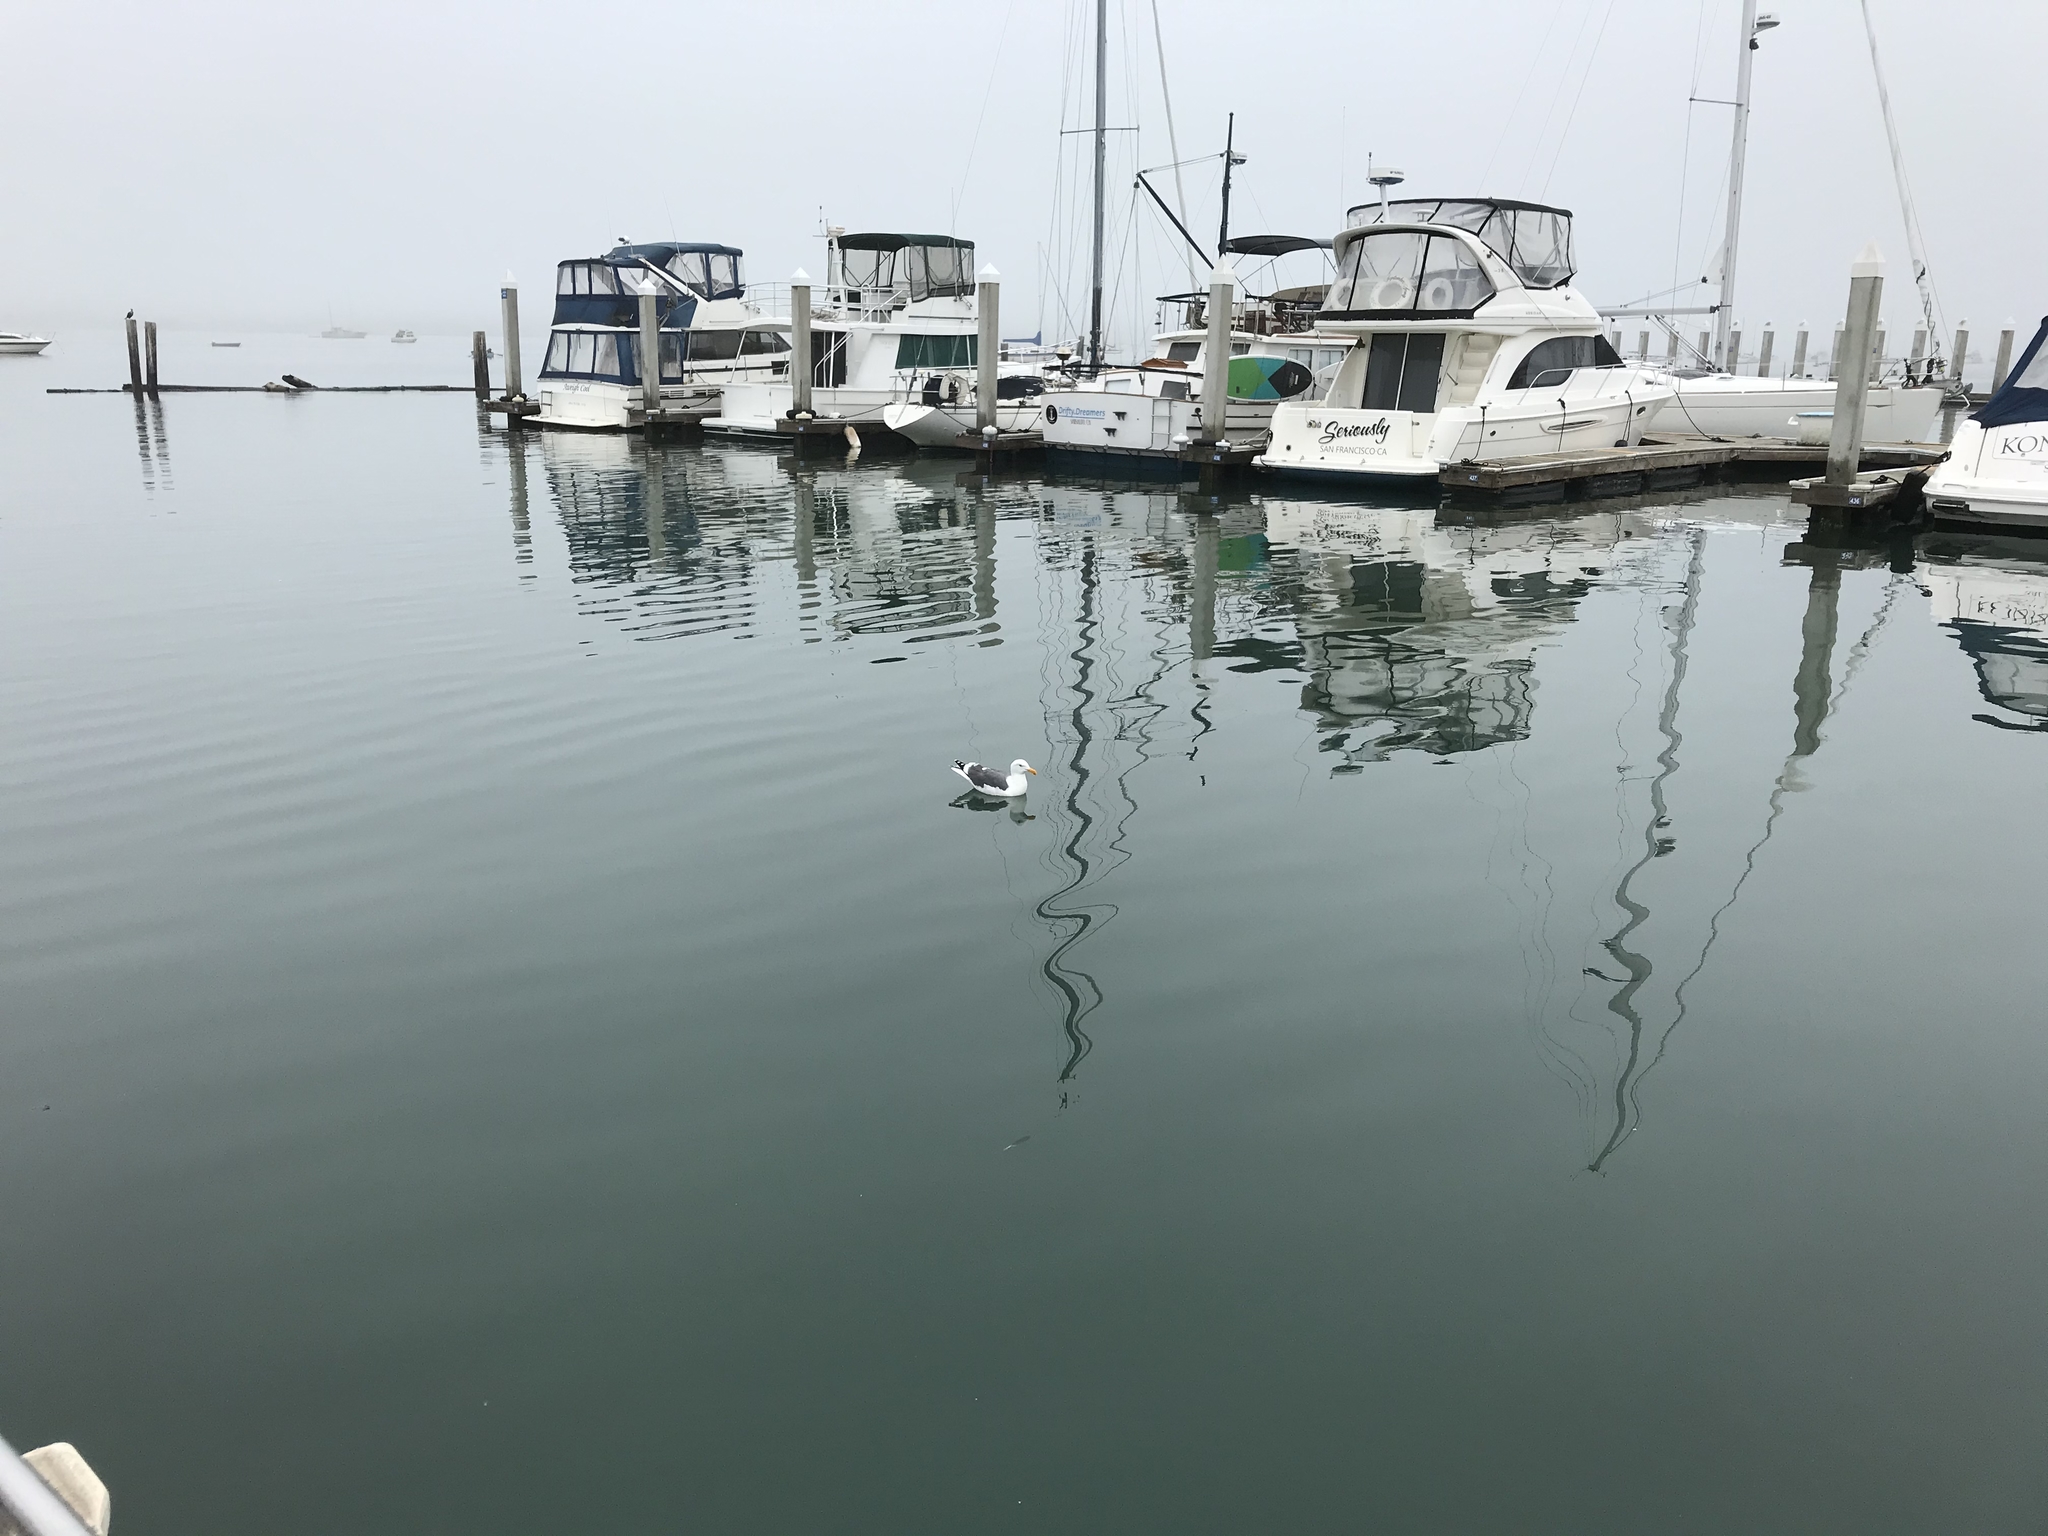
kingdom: Animalia
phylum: Chordata
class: Aves
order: Charadriiformes
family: Laridae
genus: Larus
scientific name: Larus occidentalis
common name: Western gull
